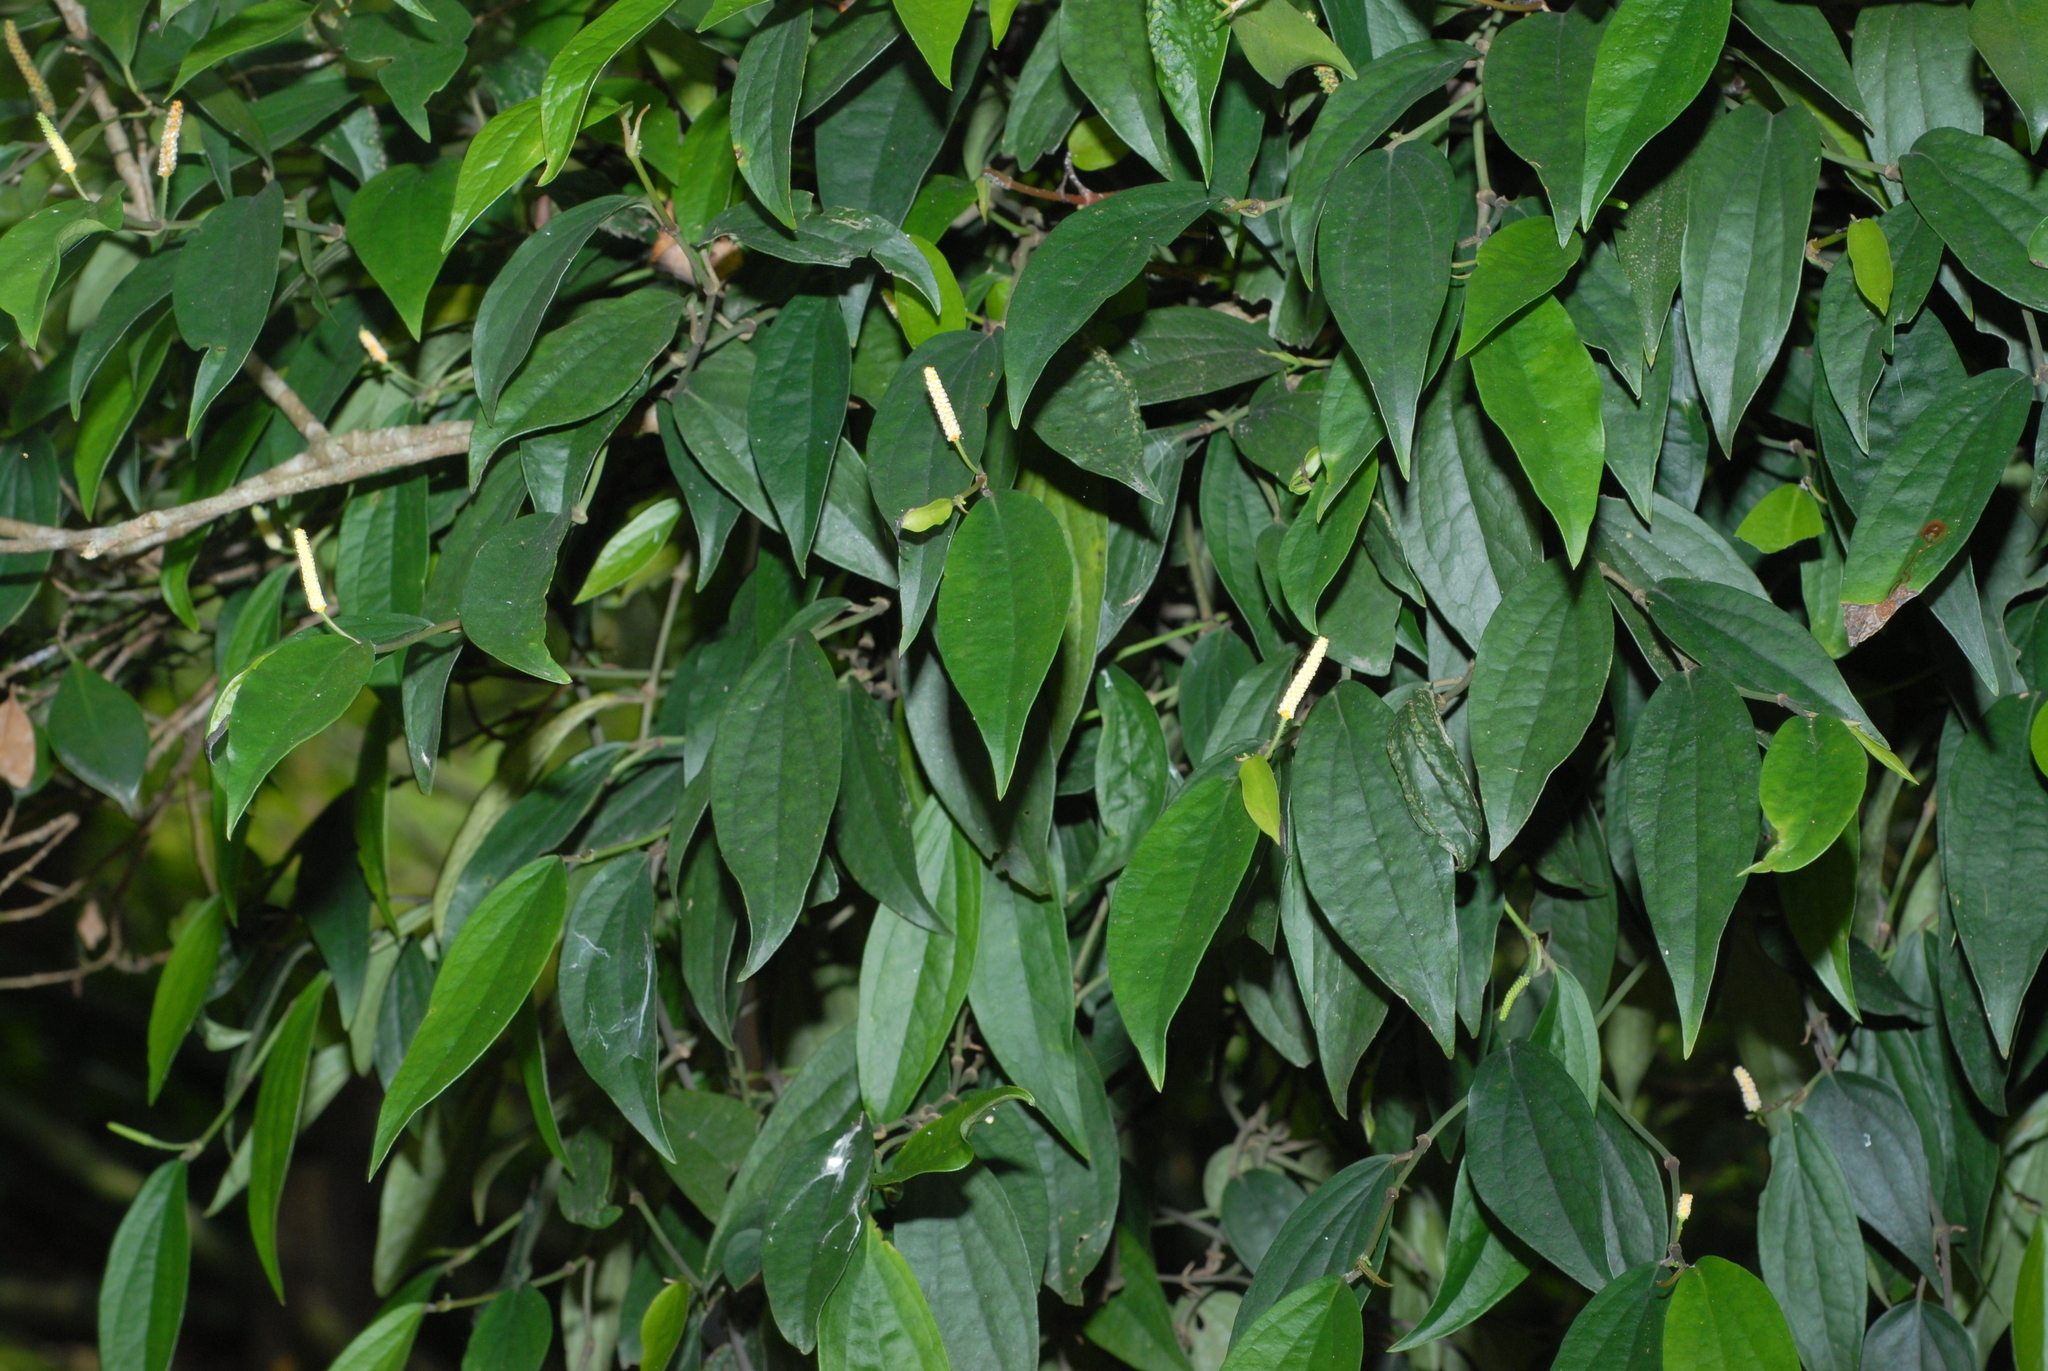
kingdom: Plantae
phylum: Tracheophyta
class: Magnoliopsida
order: Piperales
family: Piperaceae
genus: Piper
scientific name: Piper kadsura
